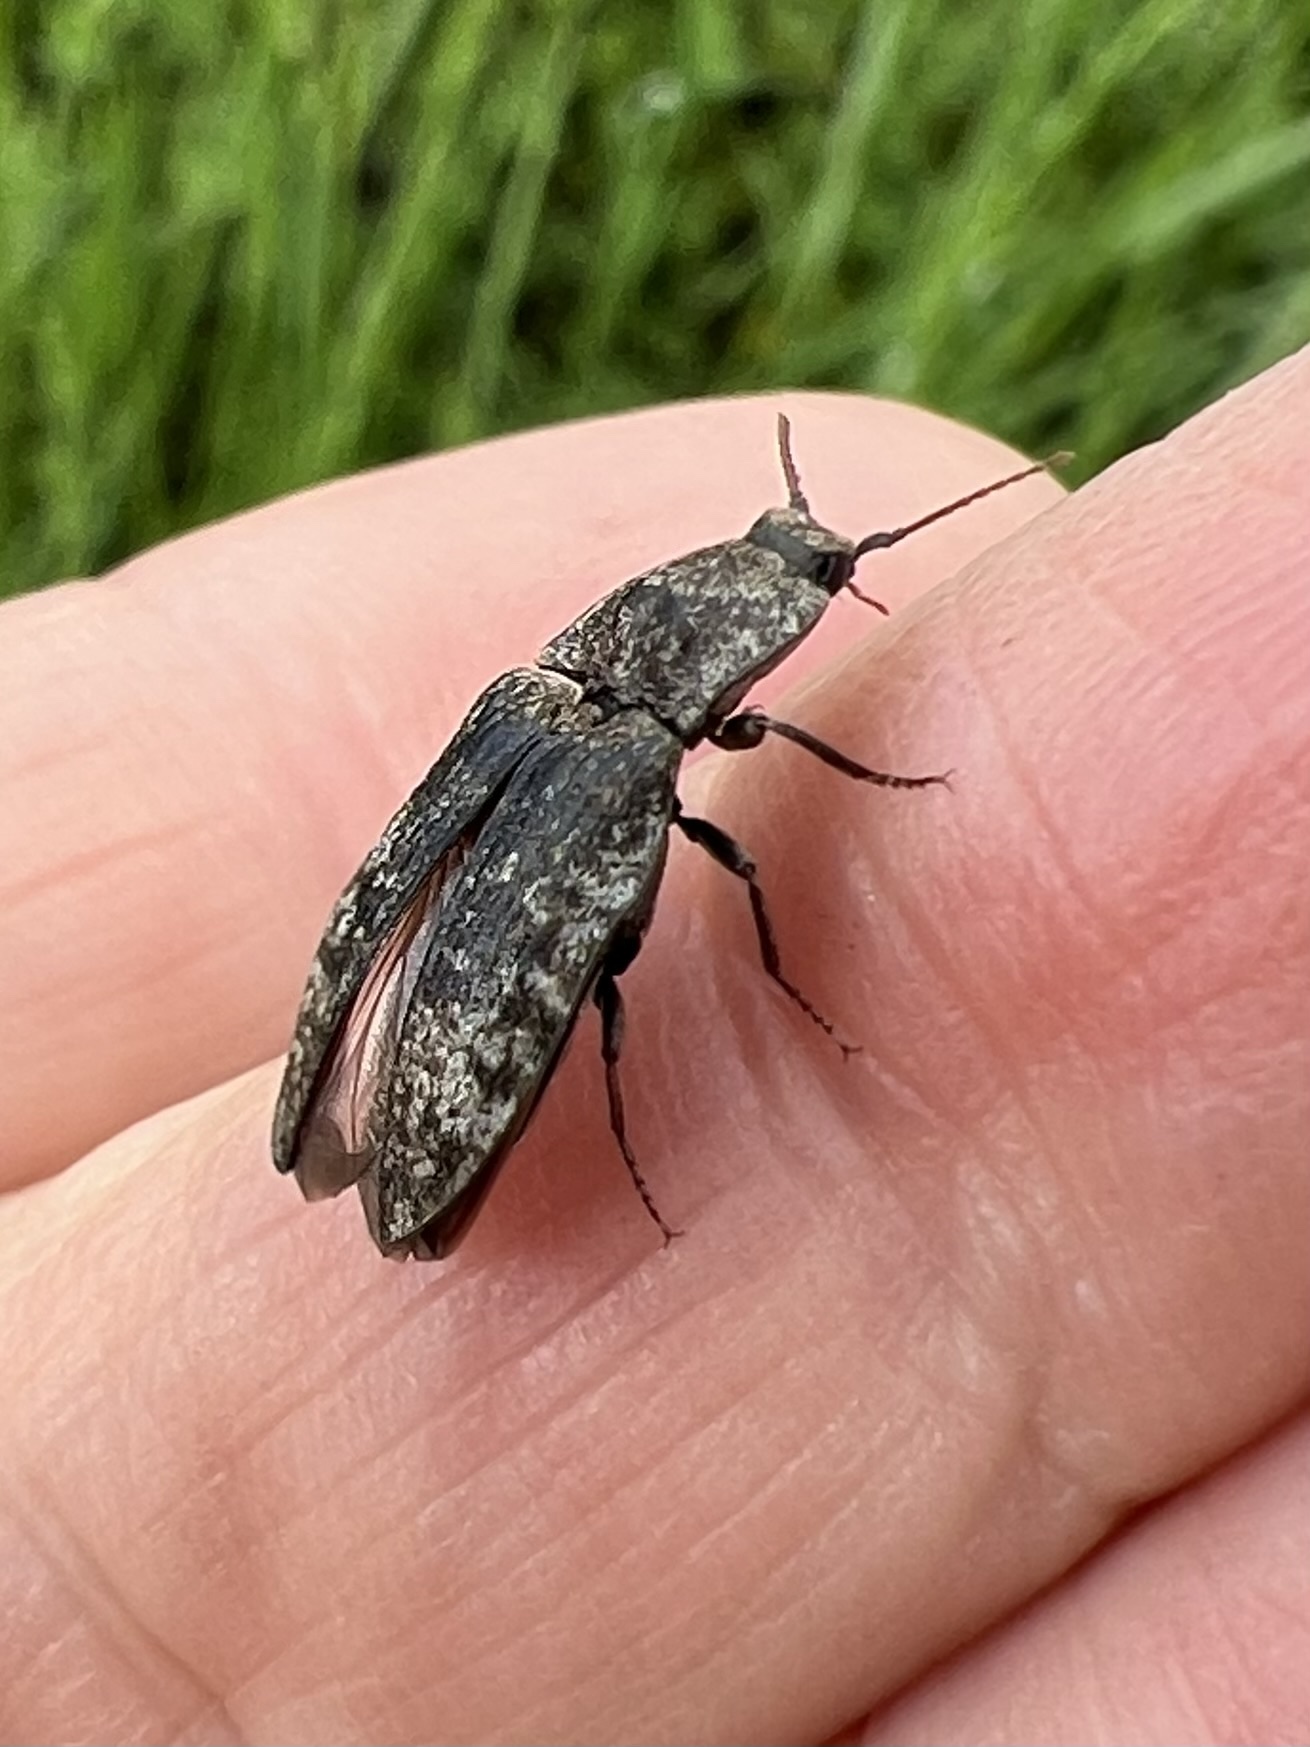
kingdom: Animalia
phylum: Arthropoda
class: Insecta
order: Coleoptera
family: Elateridae
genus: Agrypnus
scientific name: Agrypnus murinus
